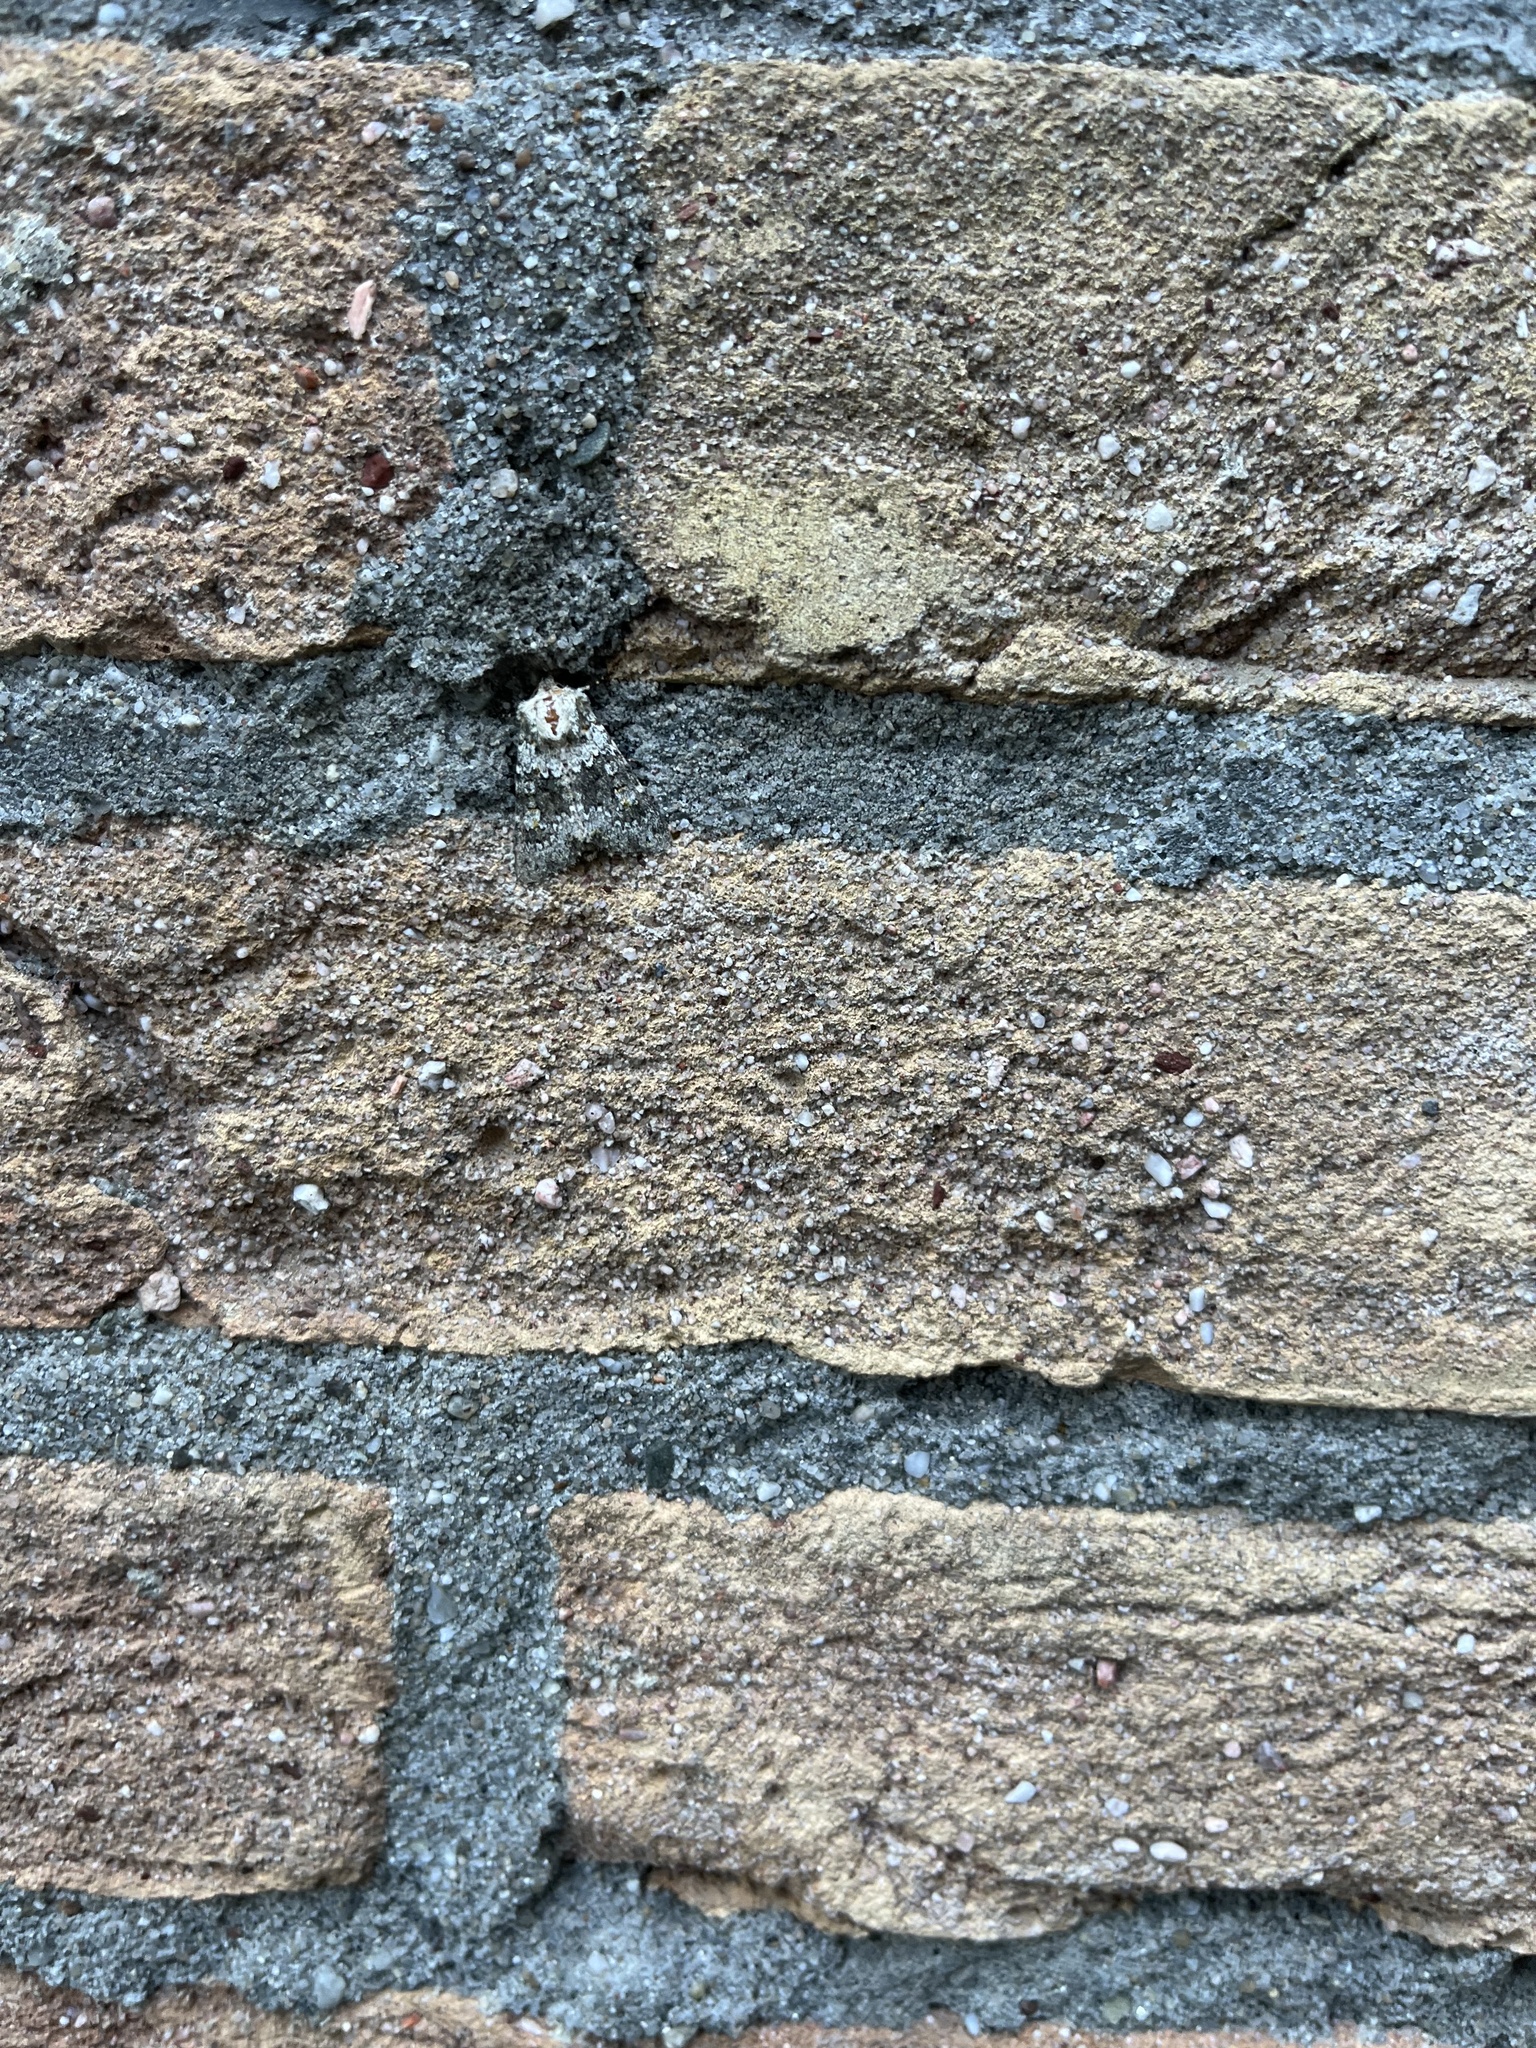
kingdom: Animalia
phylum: Arthropoda
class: Insecta
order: Lepidoptera
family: Noctuidae
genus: Hecatera
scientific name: Hecatera dysodea
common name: Small ranunculus
